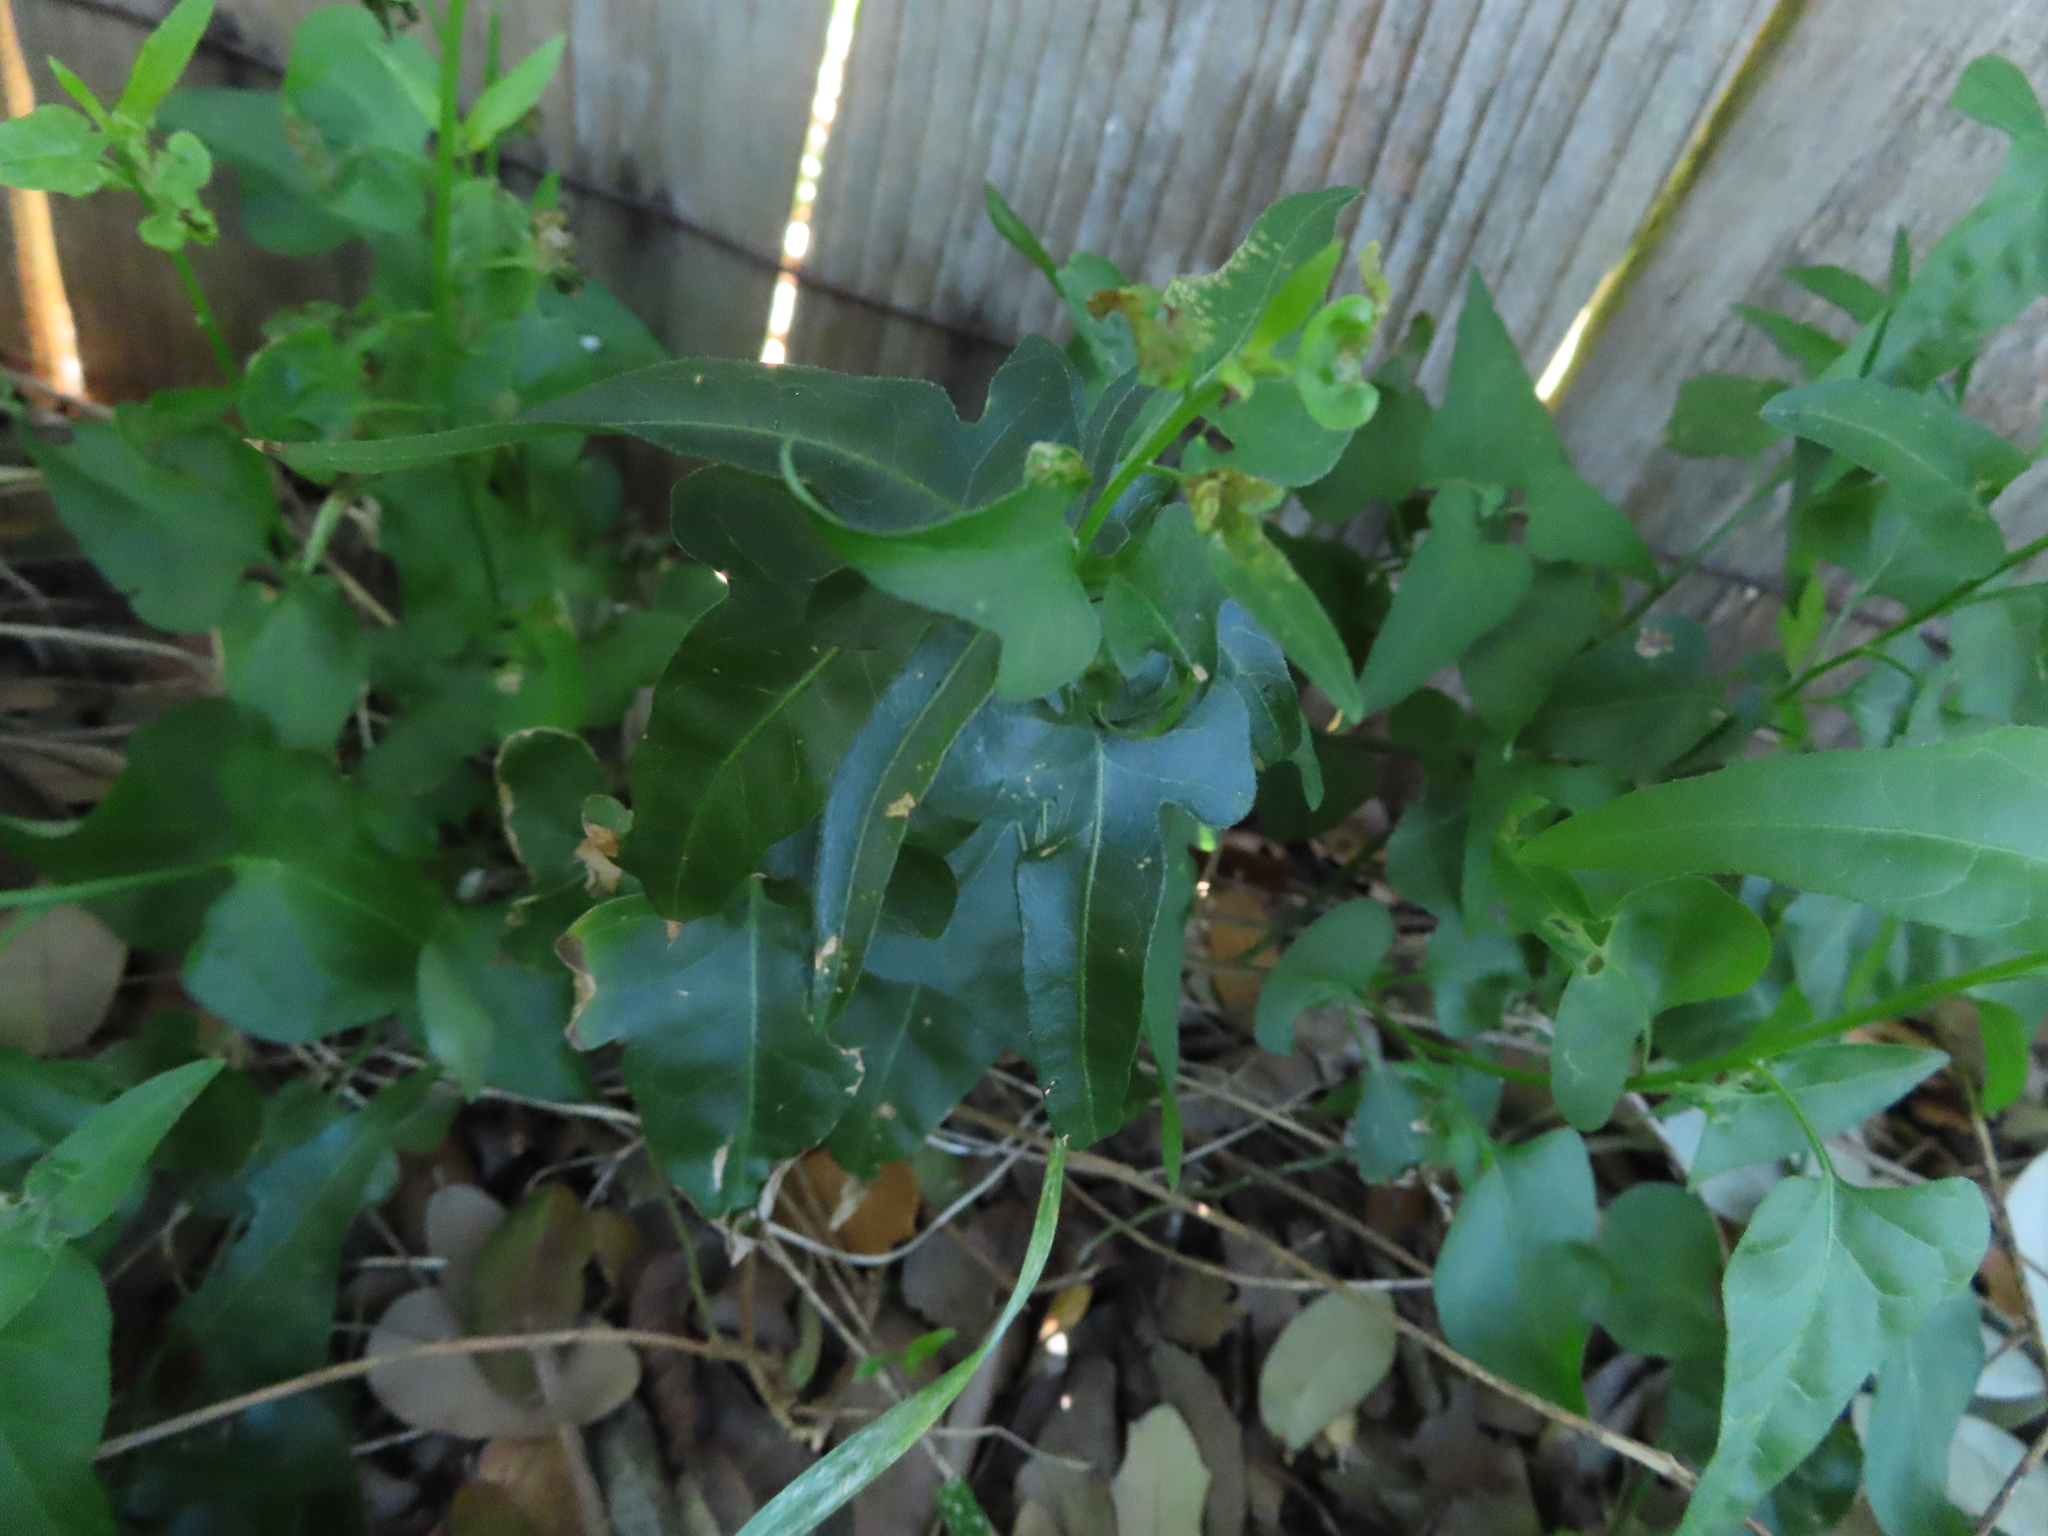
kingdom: Plantae
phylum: Tracheophyta
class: Magnoliopsida
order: Solanales
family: Solanaceae
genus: Solanum
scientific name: Solanum triquetrum
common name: Texas nightshade
